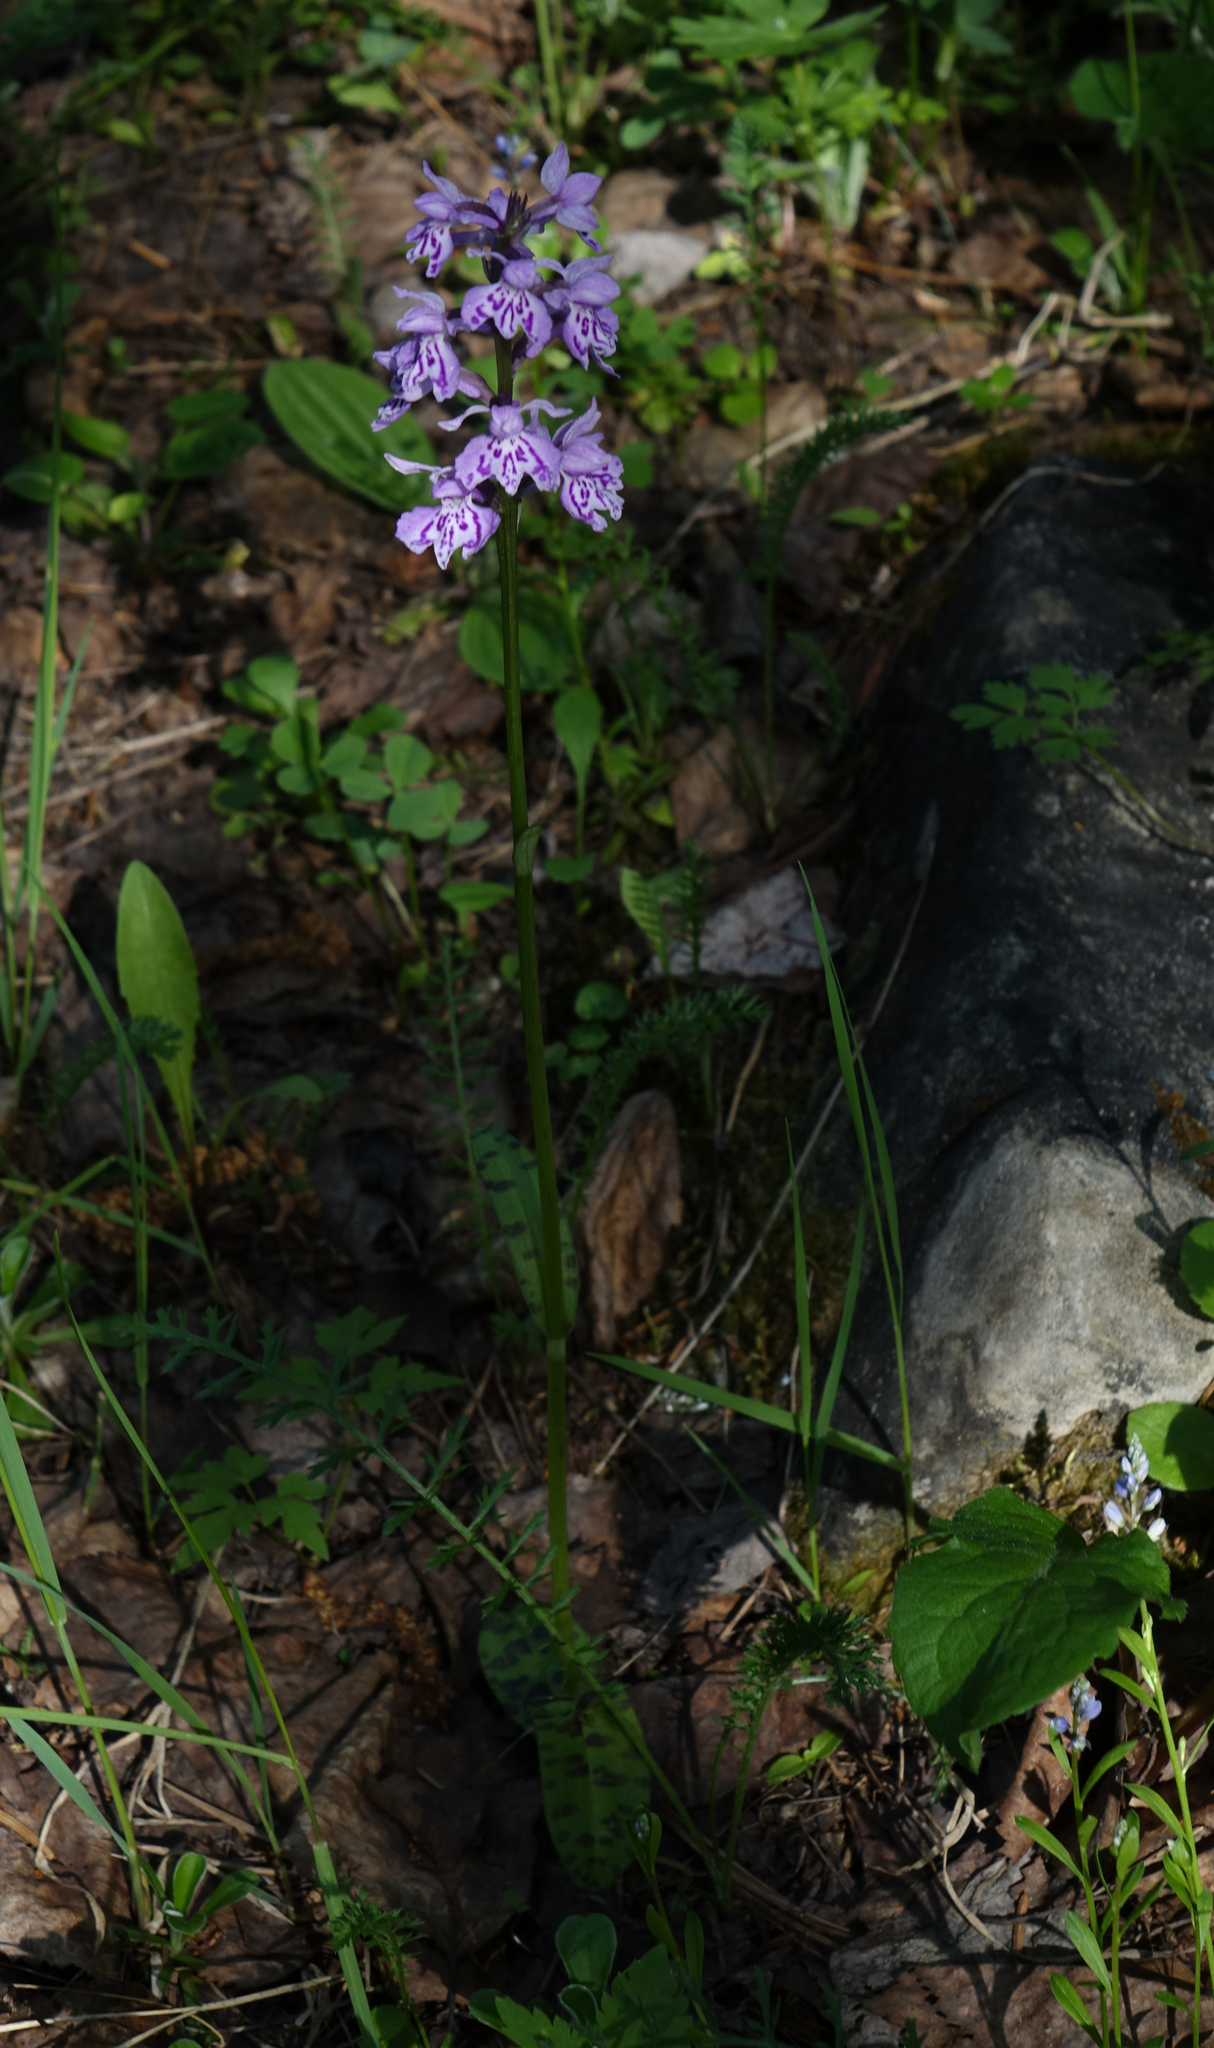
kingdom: Plantae
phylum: Tracheophyta
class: Liliopsida
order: Asparagales
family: Orchidaceae
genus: Dactylorhiza
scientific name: Dactylorhiza maculata
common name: Heath spotted-orchid
